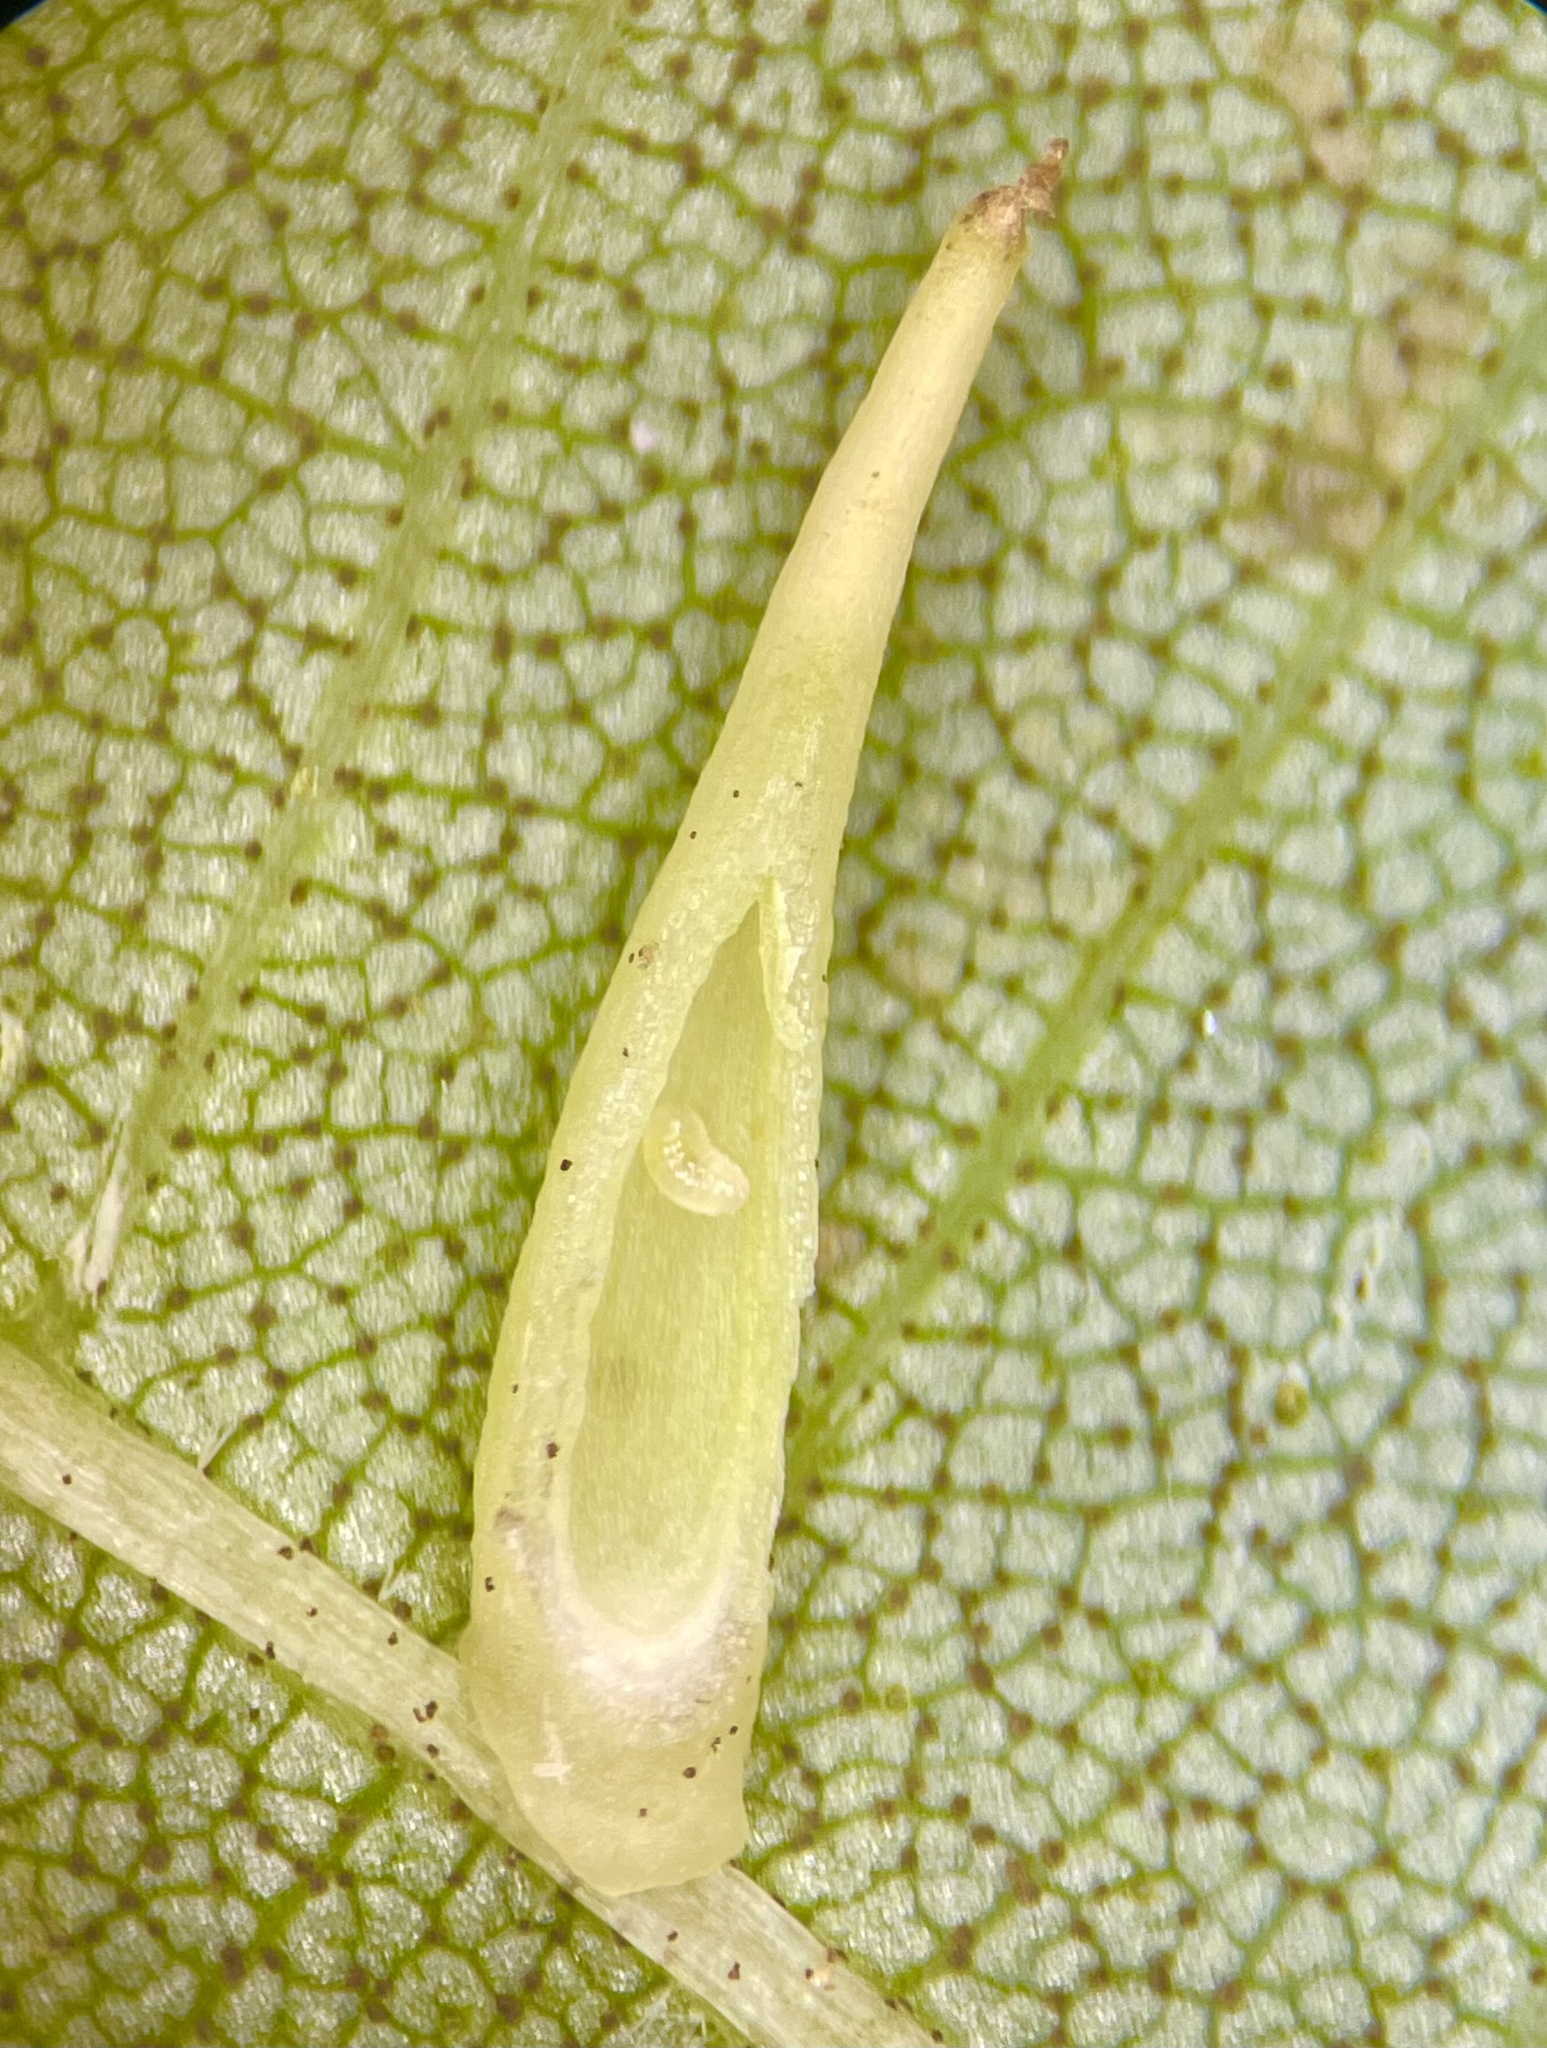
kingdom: Animalia
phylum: Arthropoda
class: Insecta
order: Diptera
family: Cecidomyiidae
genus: Caryomyia
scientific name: Caryomyia
